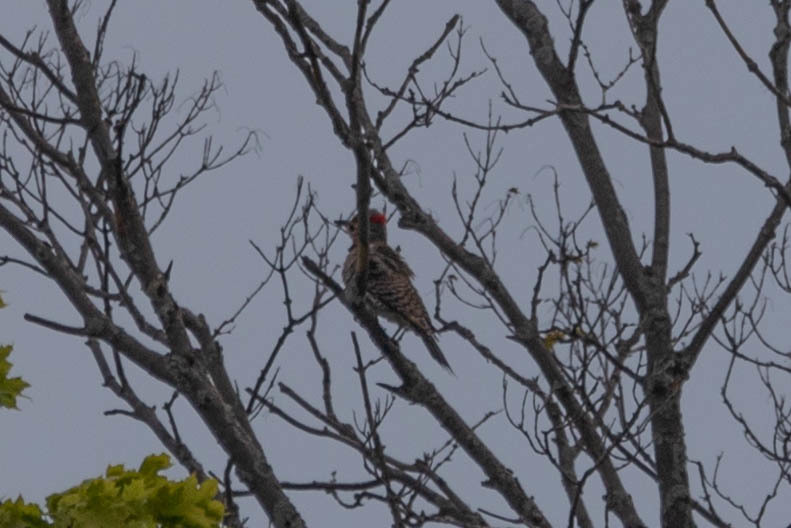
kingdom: Animalia
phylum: Chordata
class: Aves
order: Piciformes
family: Picidae
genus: Colaptes
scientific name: Colaptes auratus
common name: Northern flicker
